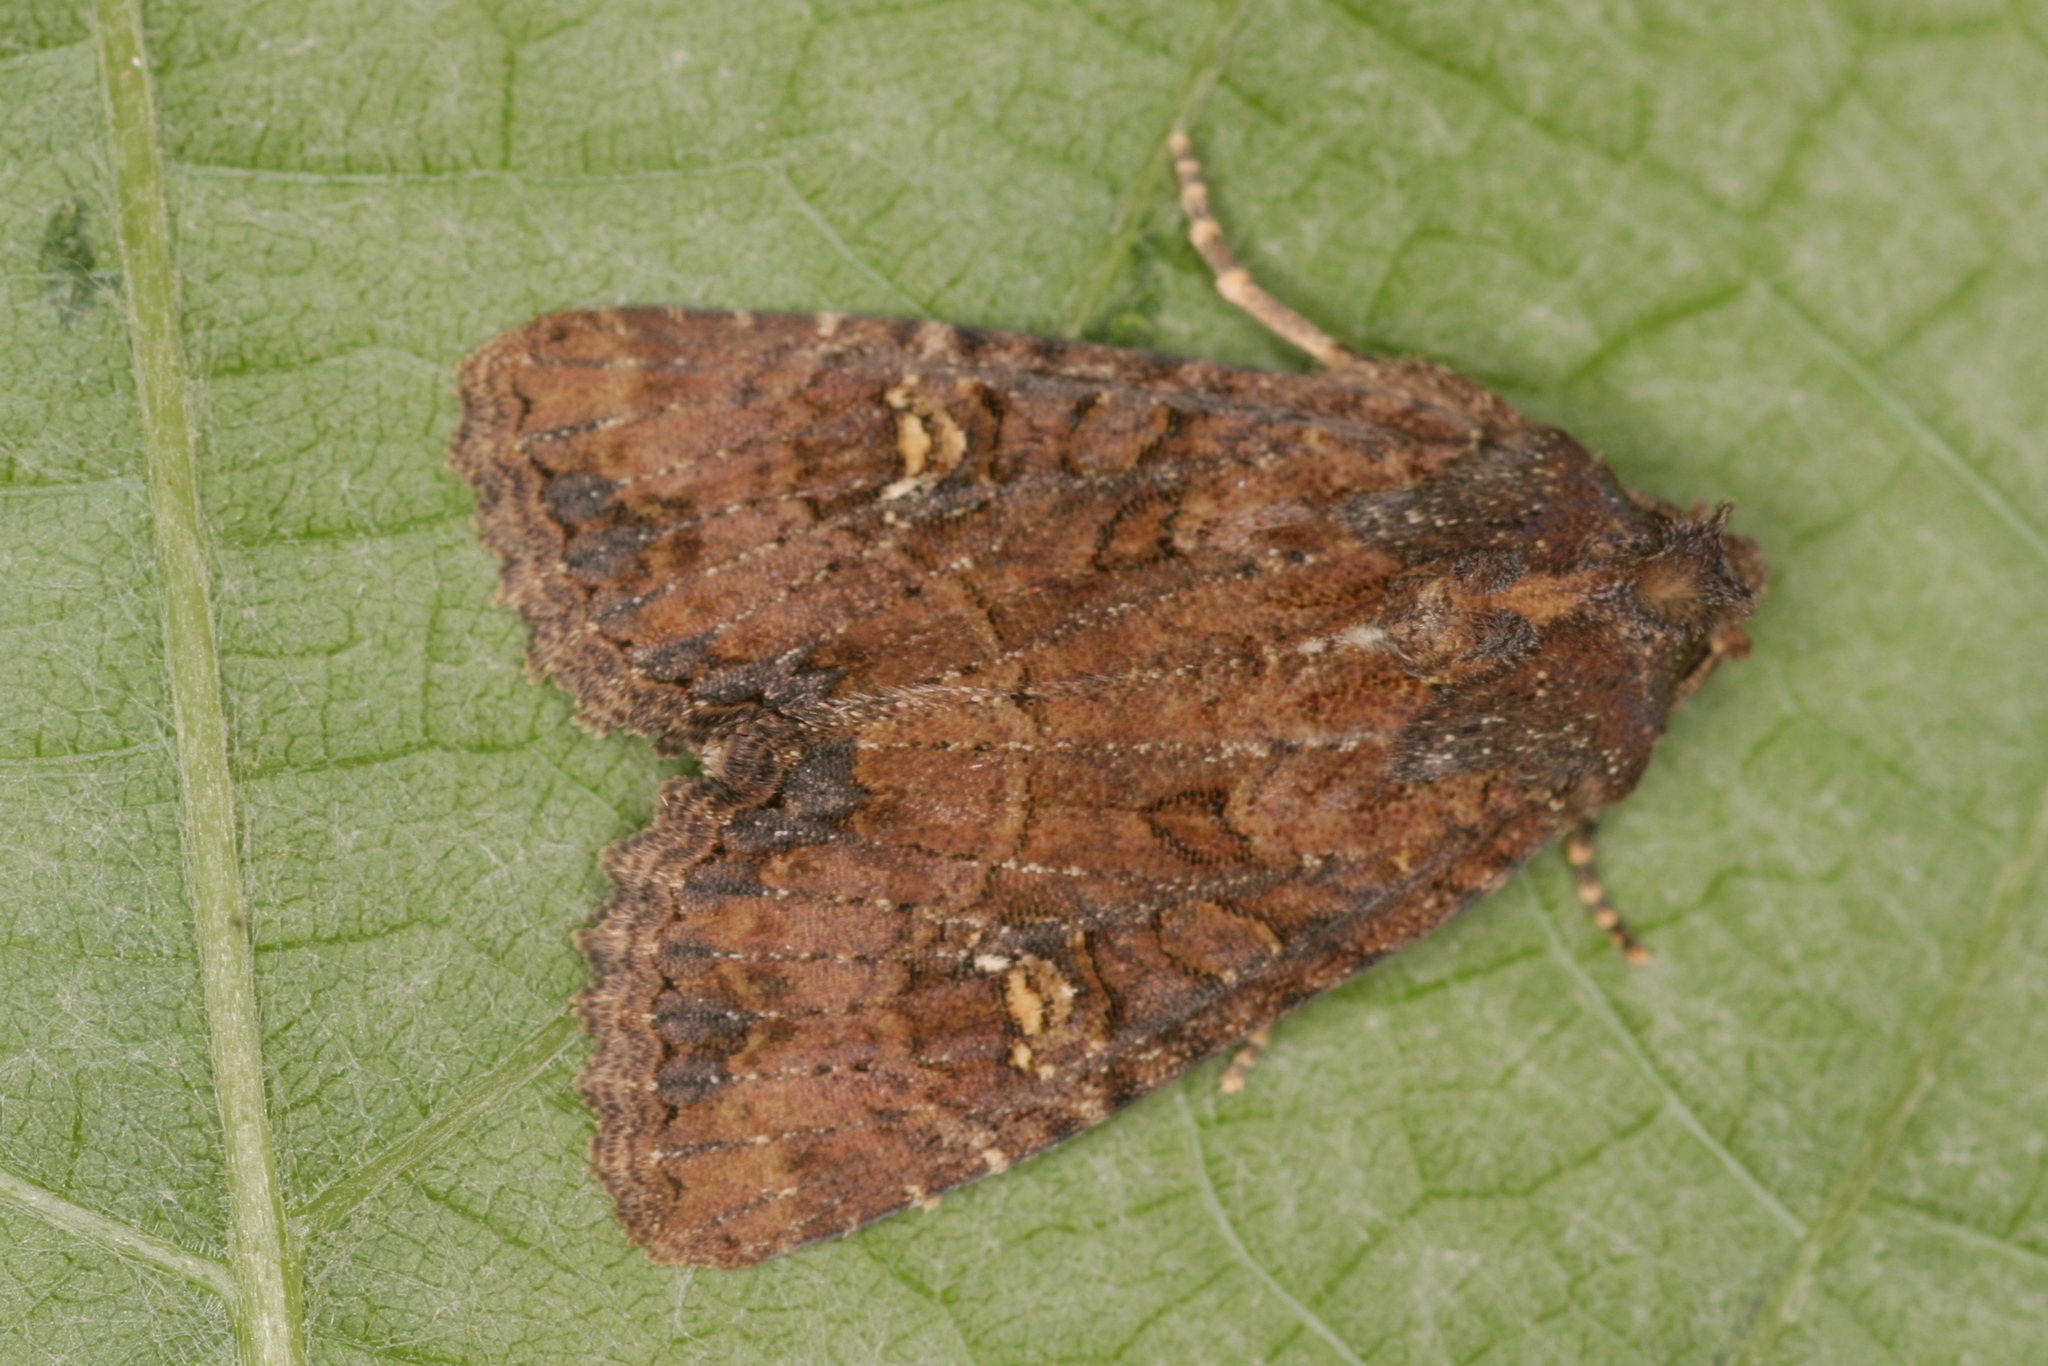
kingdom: Animalia
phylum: Arthropoda
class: Insecta
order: Lepidoptera
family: Noctuidae
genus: Mesapamea
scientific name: Mesapamea
